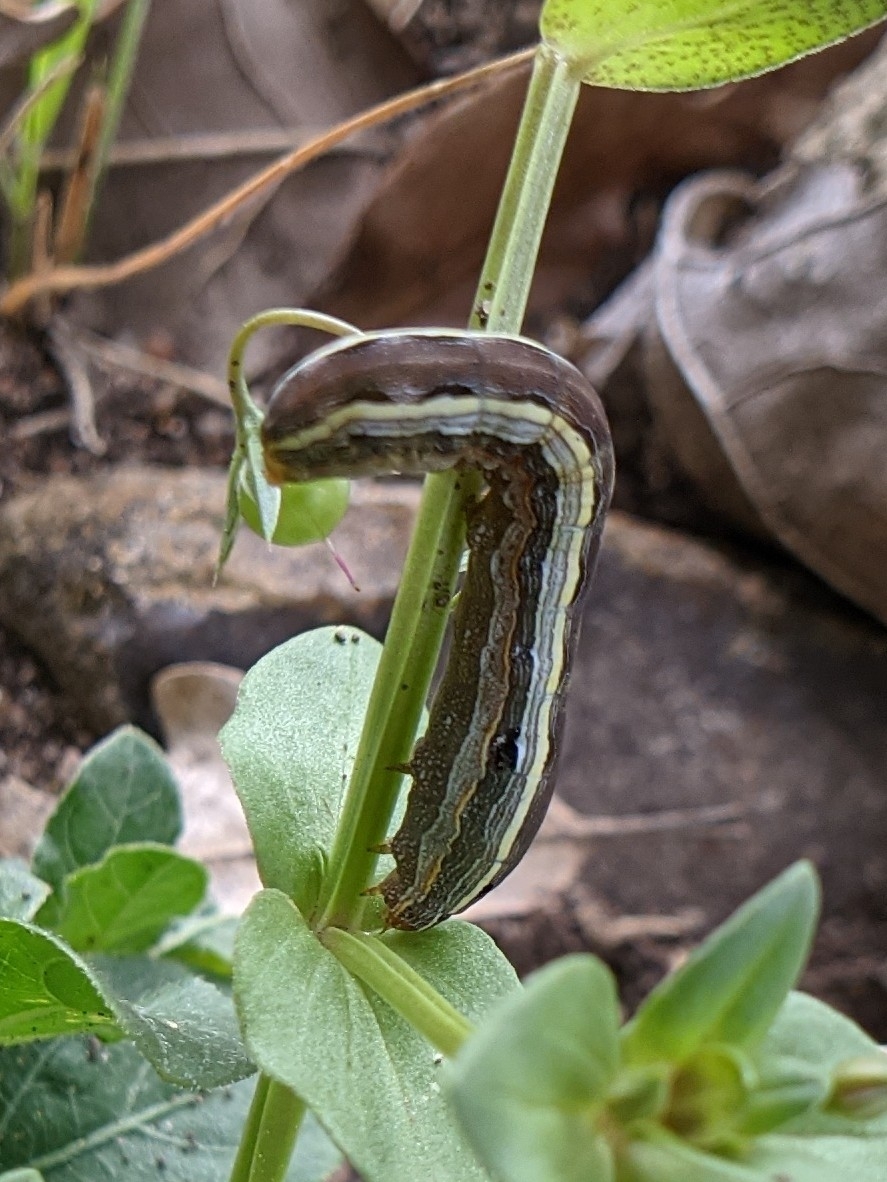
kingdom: Animalia
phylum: Arthropoda
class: Insecta
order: Lepidoptera
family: Noctuidae
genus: Spodoptera
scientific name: Spodoptera ornithogalli
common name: Yellow-striped armyworm
